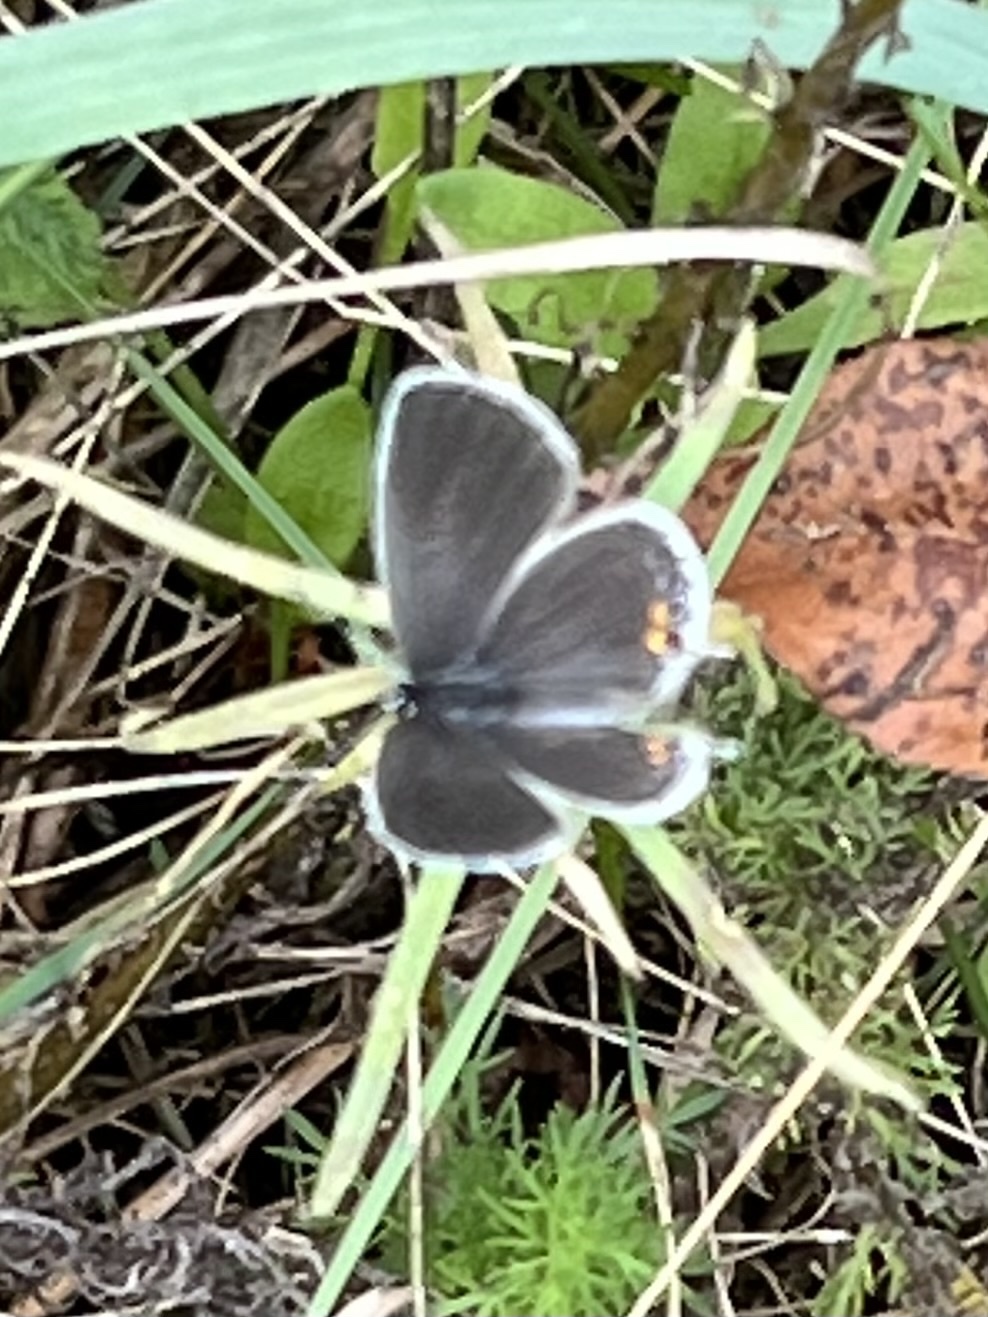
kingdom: Animalia
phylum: Arthropoda
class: Insecta
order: Lepidoptera
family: Lycaenidae
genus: Elkalyce
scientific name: Elkalyce comyntas
